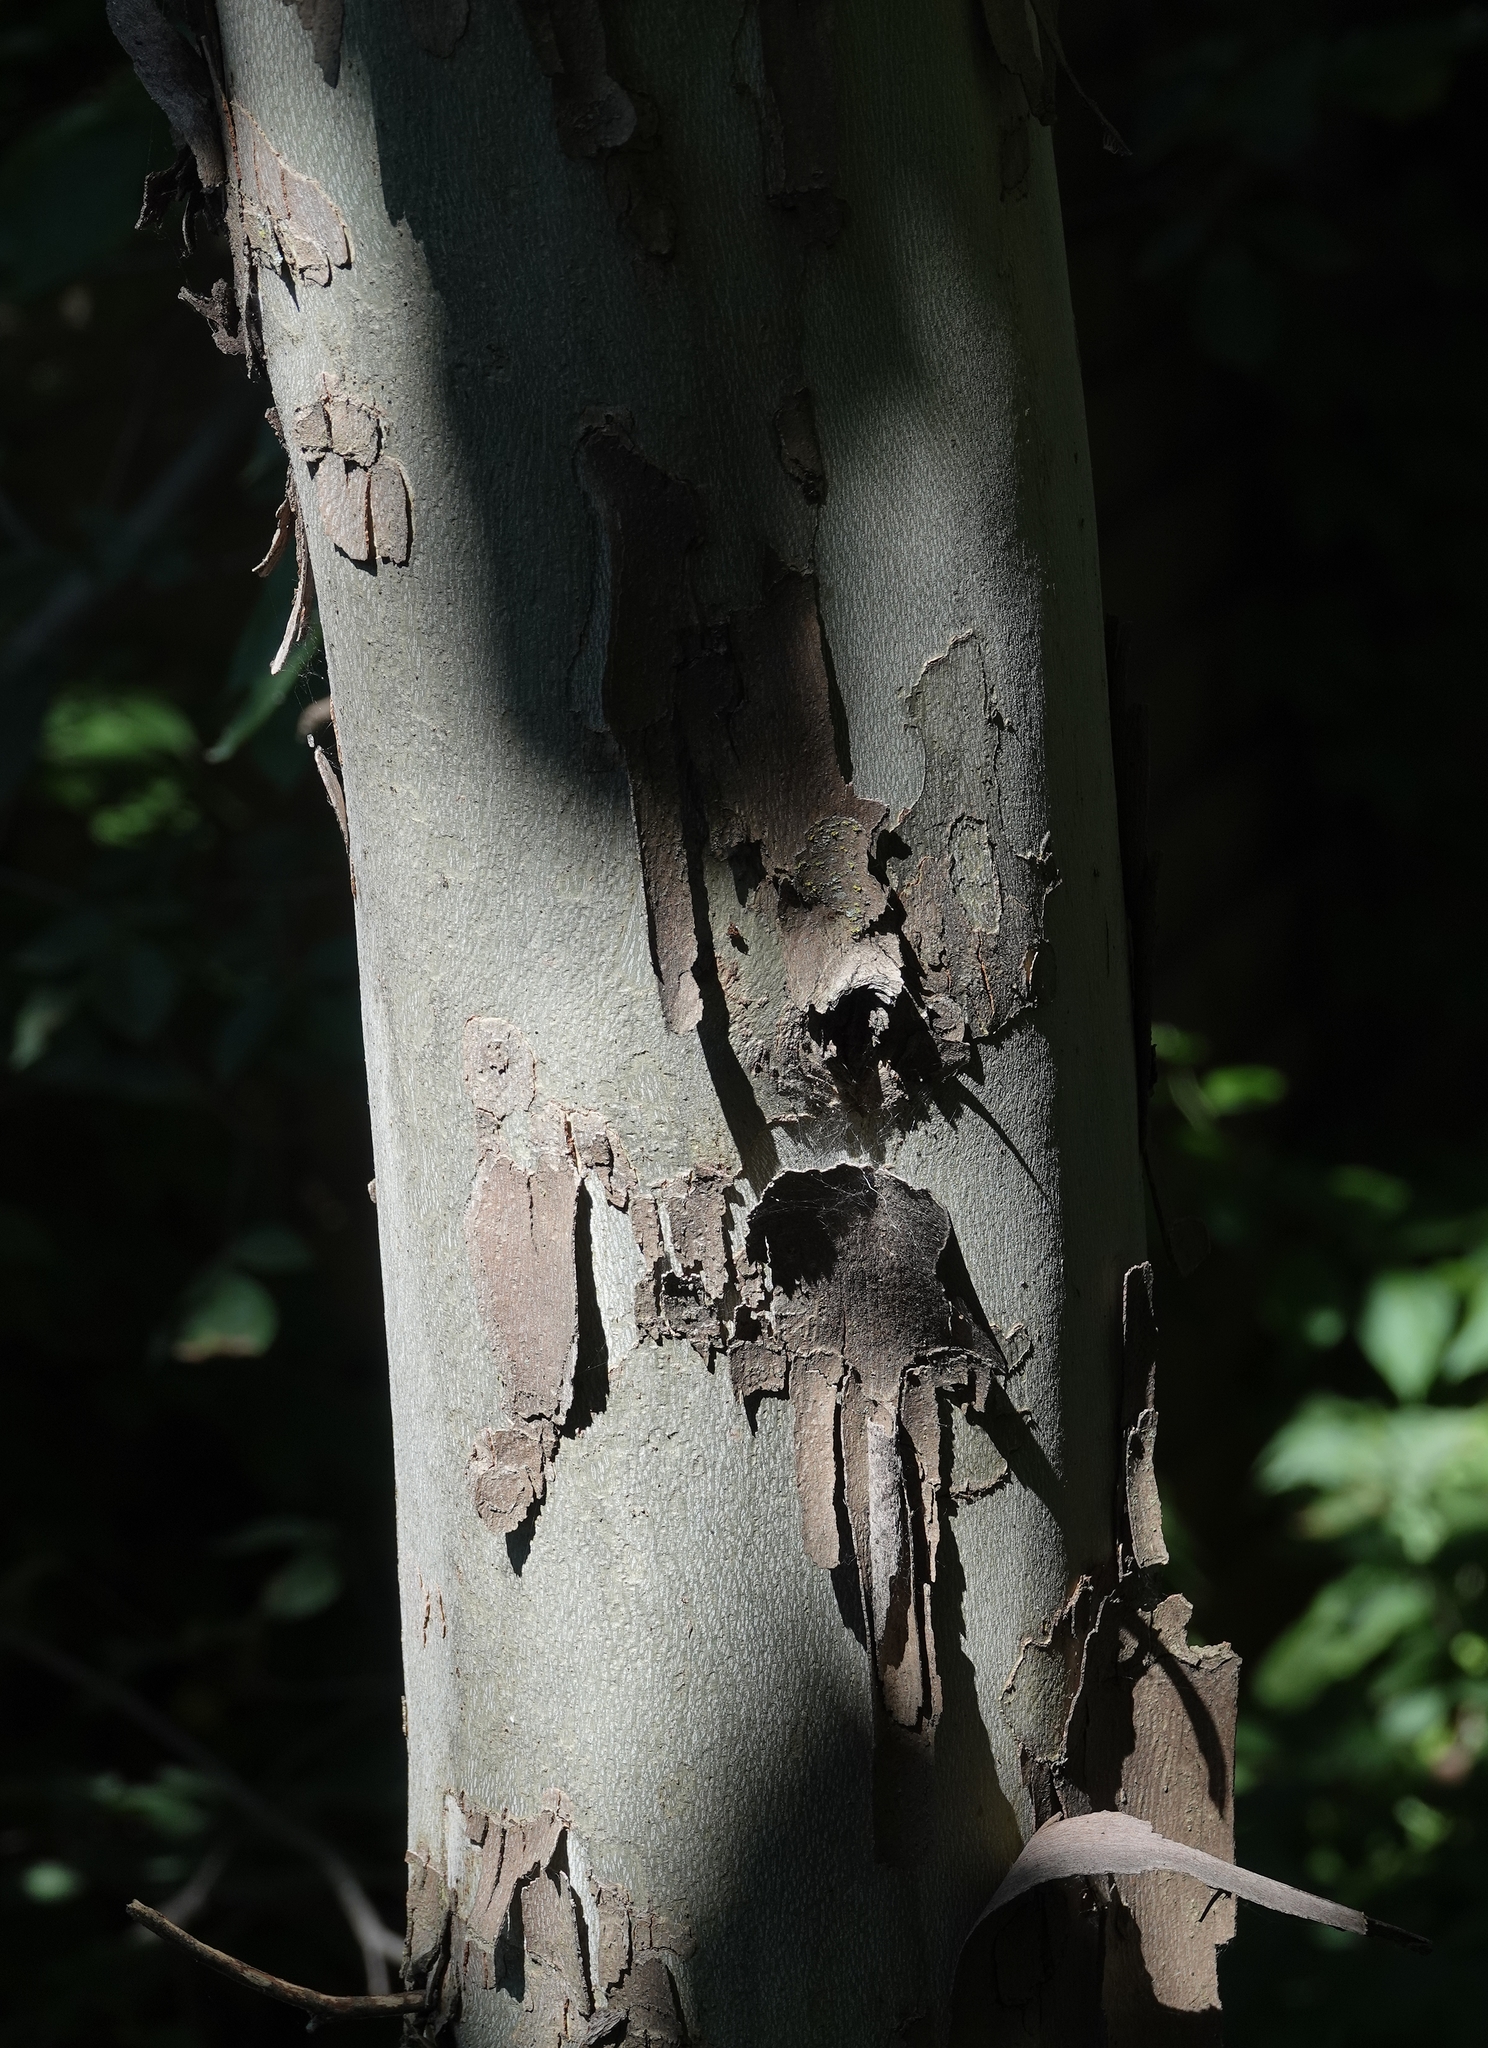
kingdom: Plantae
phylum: Tracheophyta
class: Magnoliopsida
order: Proteales
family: Platanaceae
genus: Platanus
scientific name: Platanus occidentalis
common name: American sycamore
